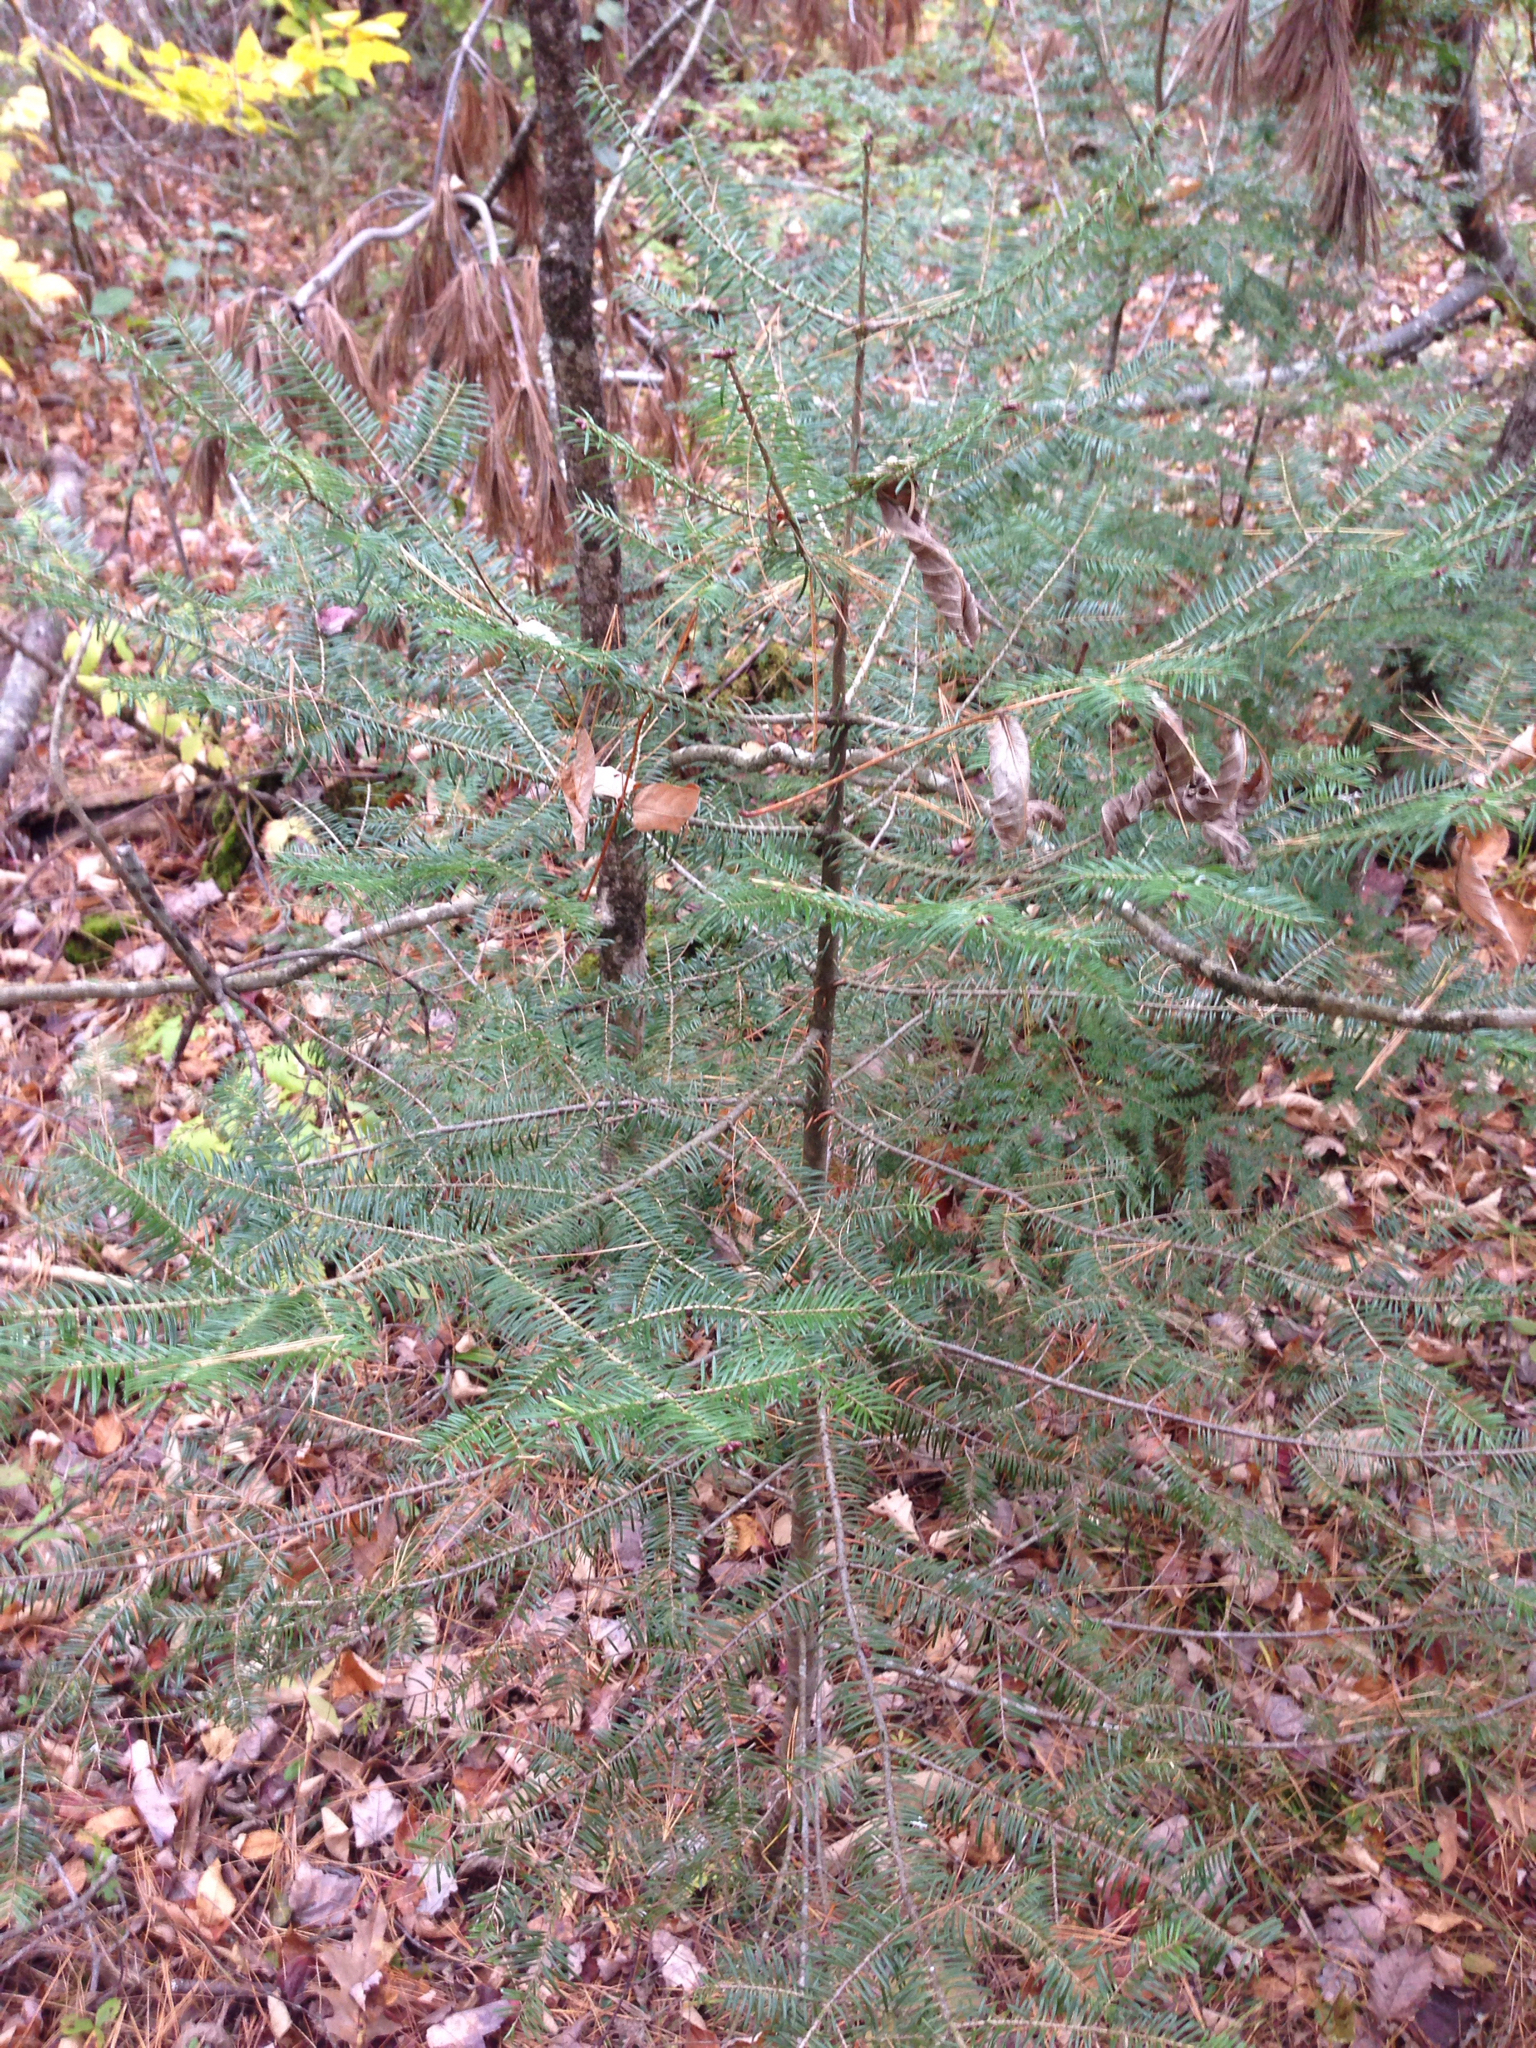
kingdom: Plantae
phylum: Tracheophyta
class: Pinopsida
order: Pinales
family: Pinaceae
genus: Abies
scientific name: Abies balsamea
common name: Balsam fir
